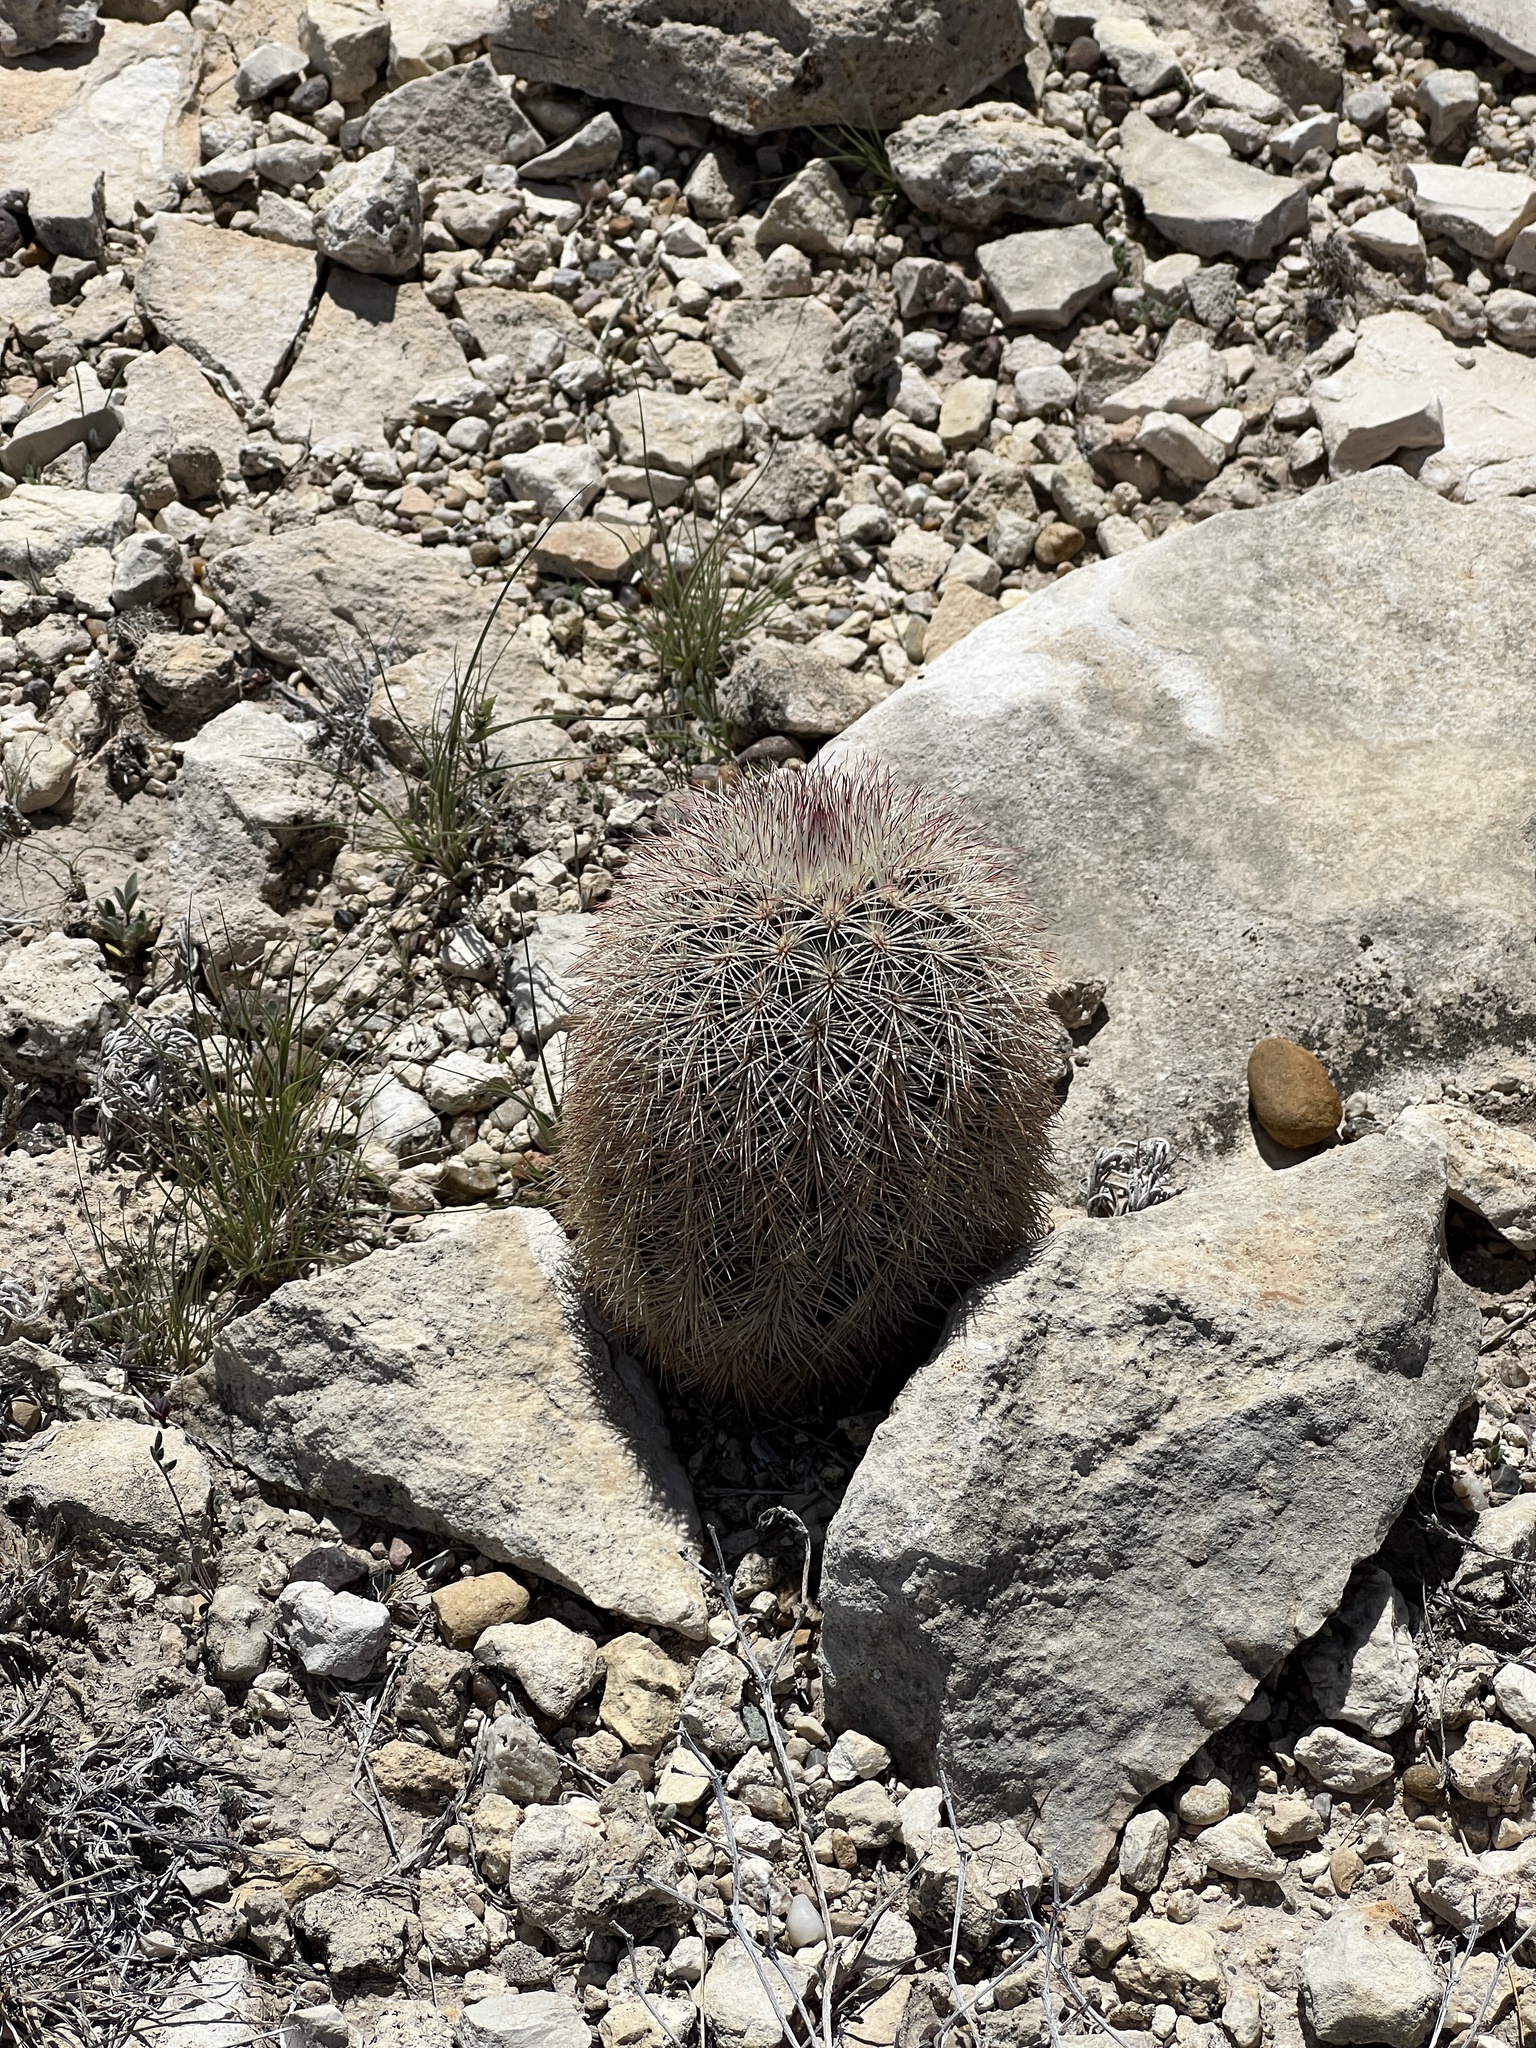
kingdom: Plantae
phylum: Tracheophyta
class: Magnoliopsida
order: Caryophyllales
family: Cactaceae
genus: Echinocereus
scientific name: Echinocereus dasyacanthus
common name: Spiny hedgehog cactus
